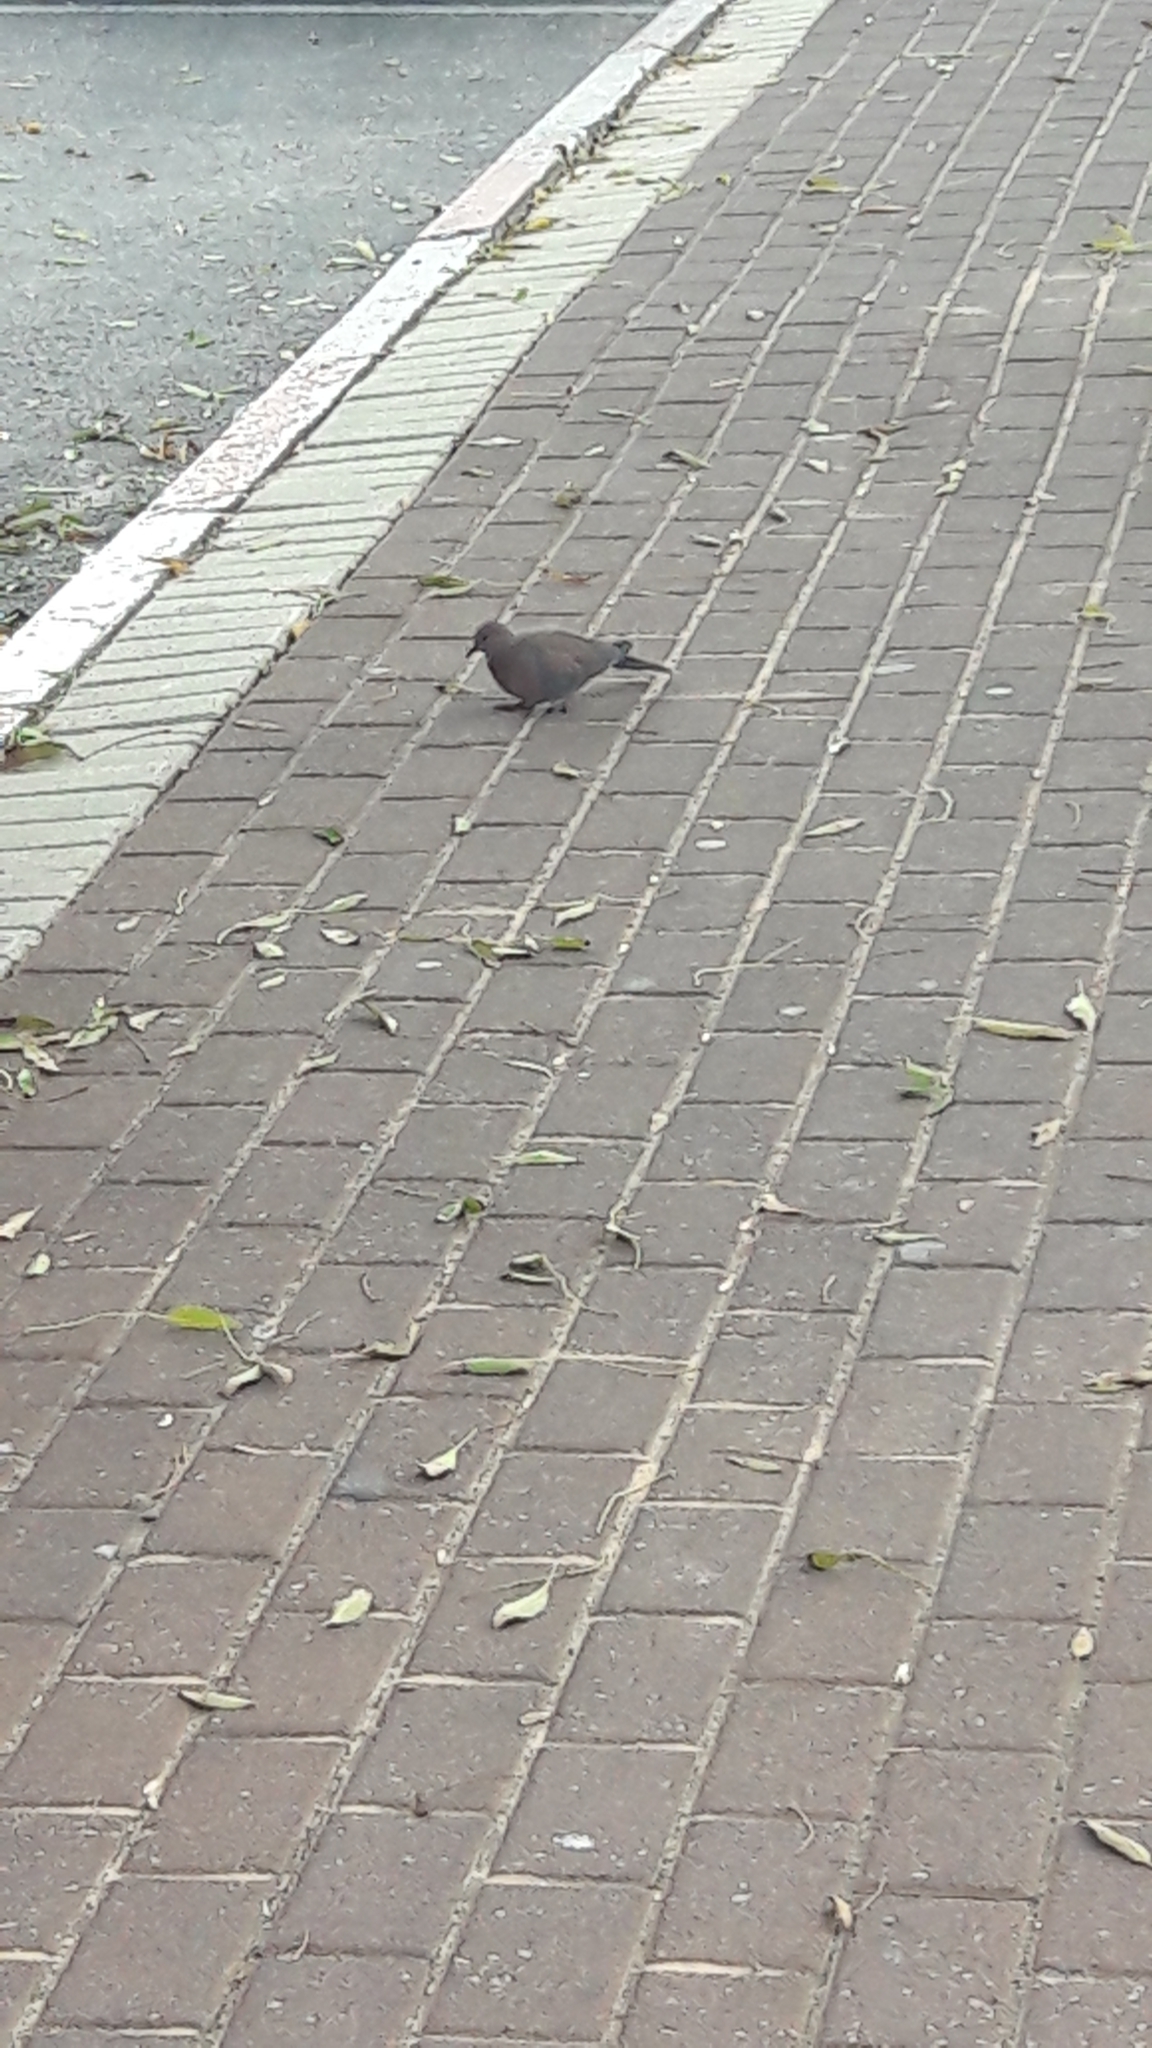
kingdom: Animalia
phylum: Chordata
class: Aves
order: Columbiformes
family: Columbidae
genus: Spilopelia
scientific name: Spilopelia senegalensis
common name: Laughing dove
